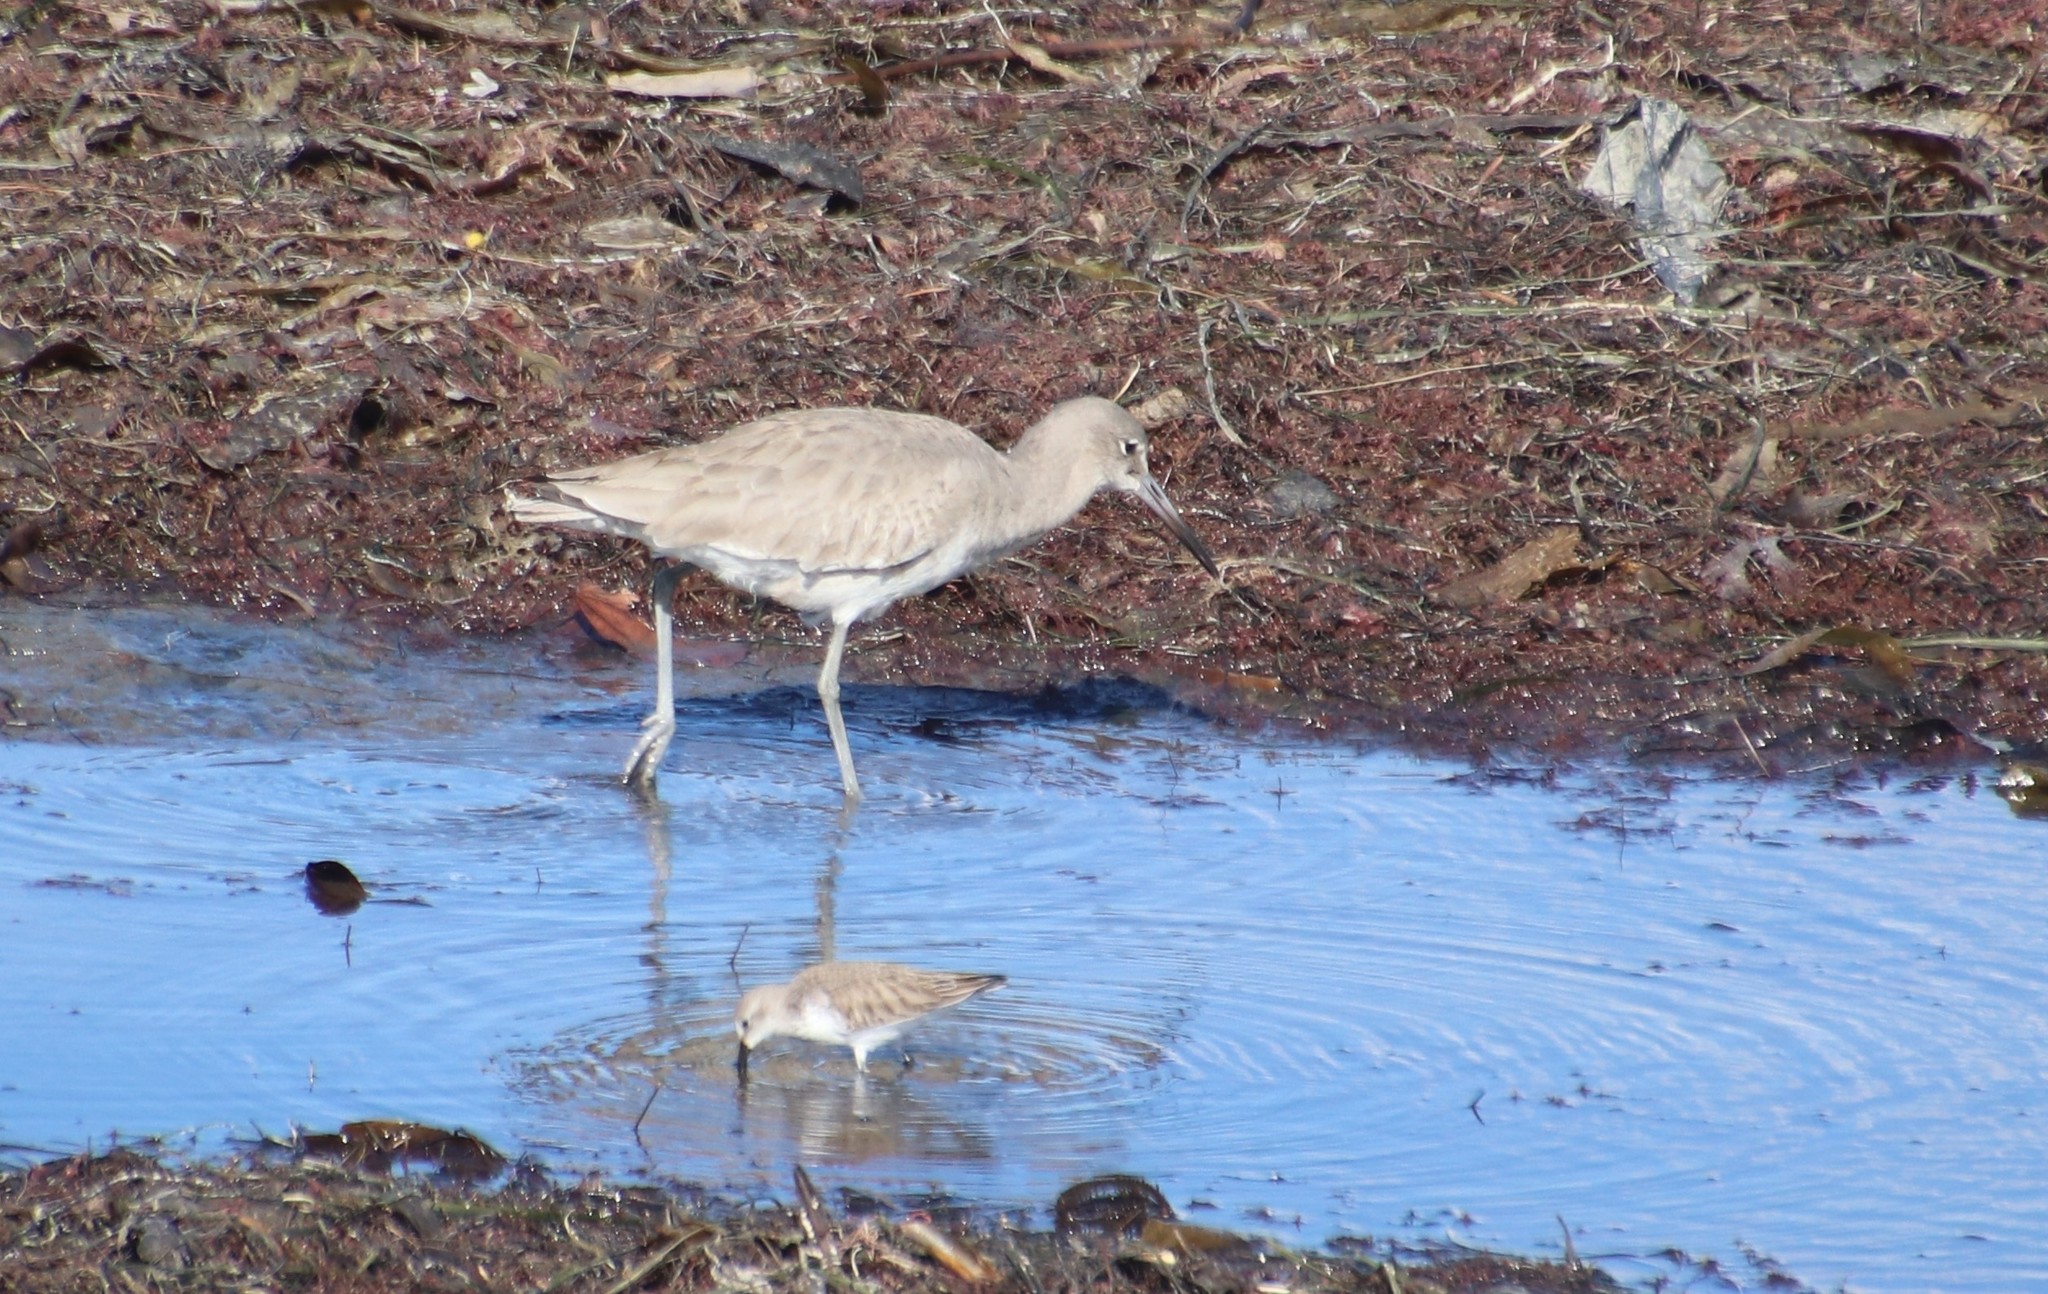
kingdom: Animalia
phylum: Chordata
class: Aves
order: Charadriiformes
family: Scolopacidae
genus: Tringa
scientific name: Tringa semipalmata
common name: Willet
